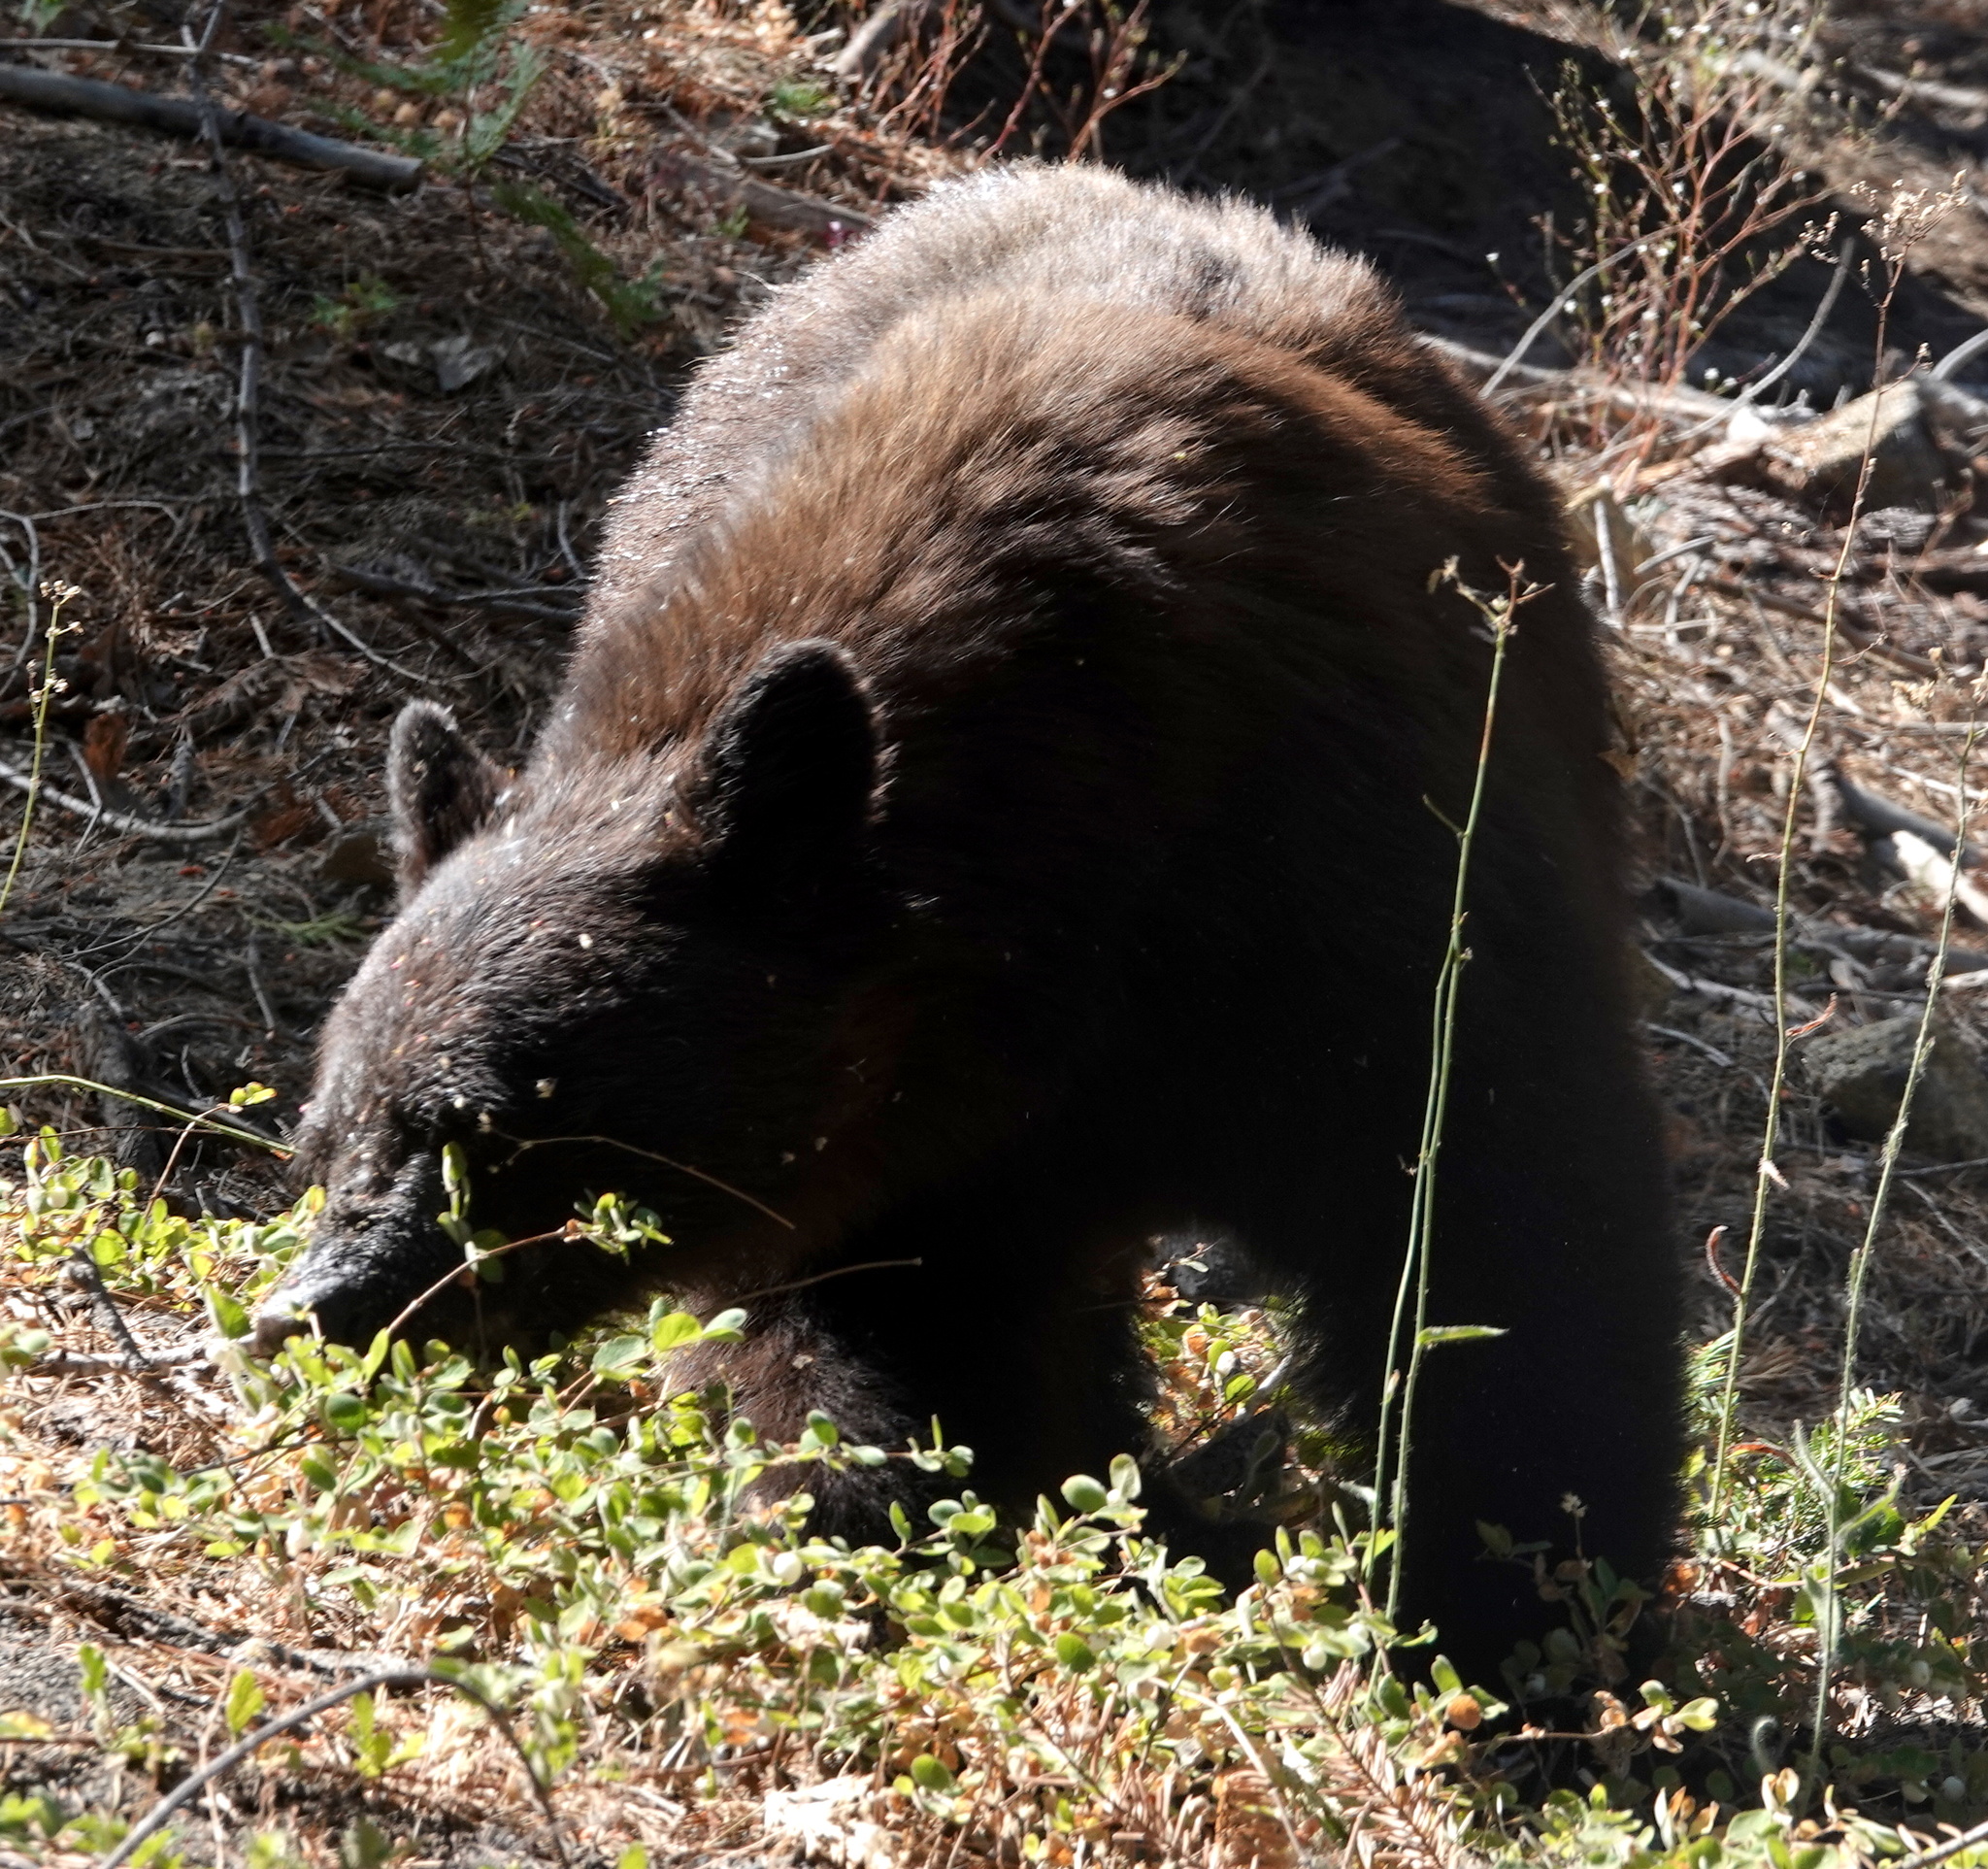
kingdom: Animalia
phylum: Chordata
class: Mammalia
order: Carnivora
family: Ursidae
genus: Ursus
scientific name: Ursus americanus
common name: American black bear
